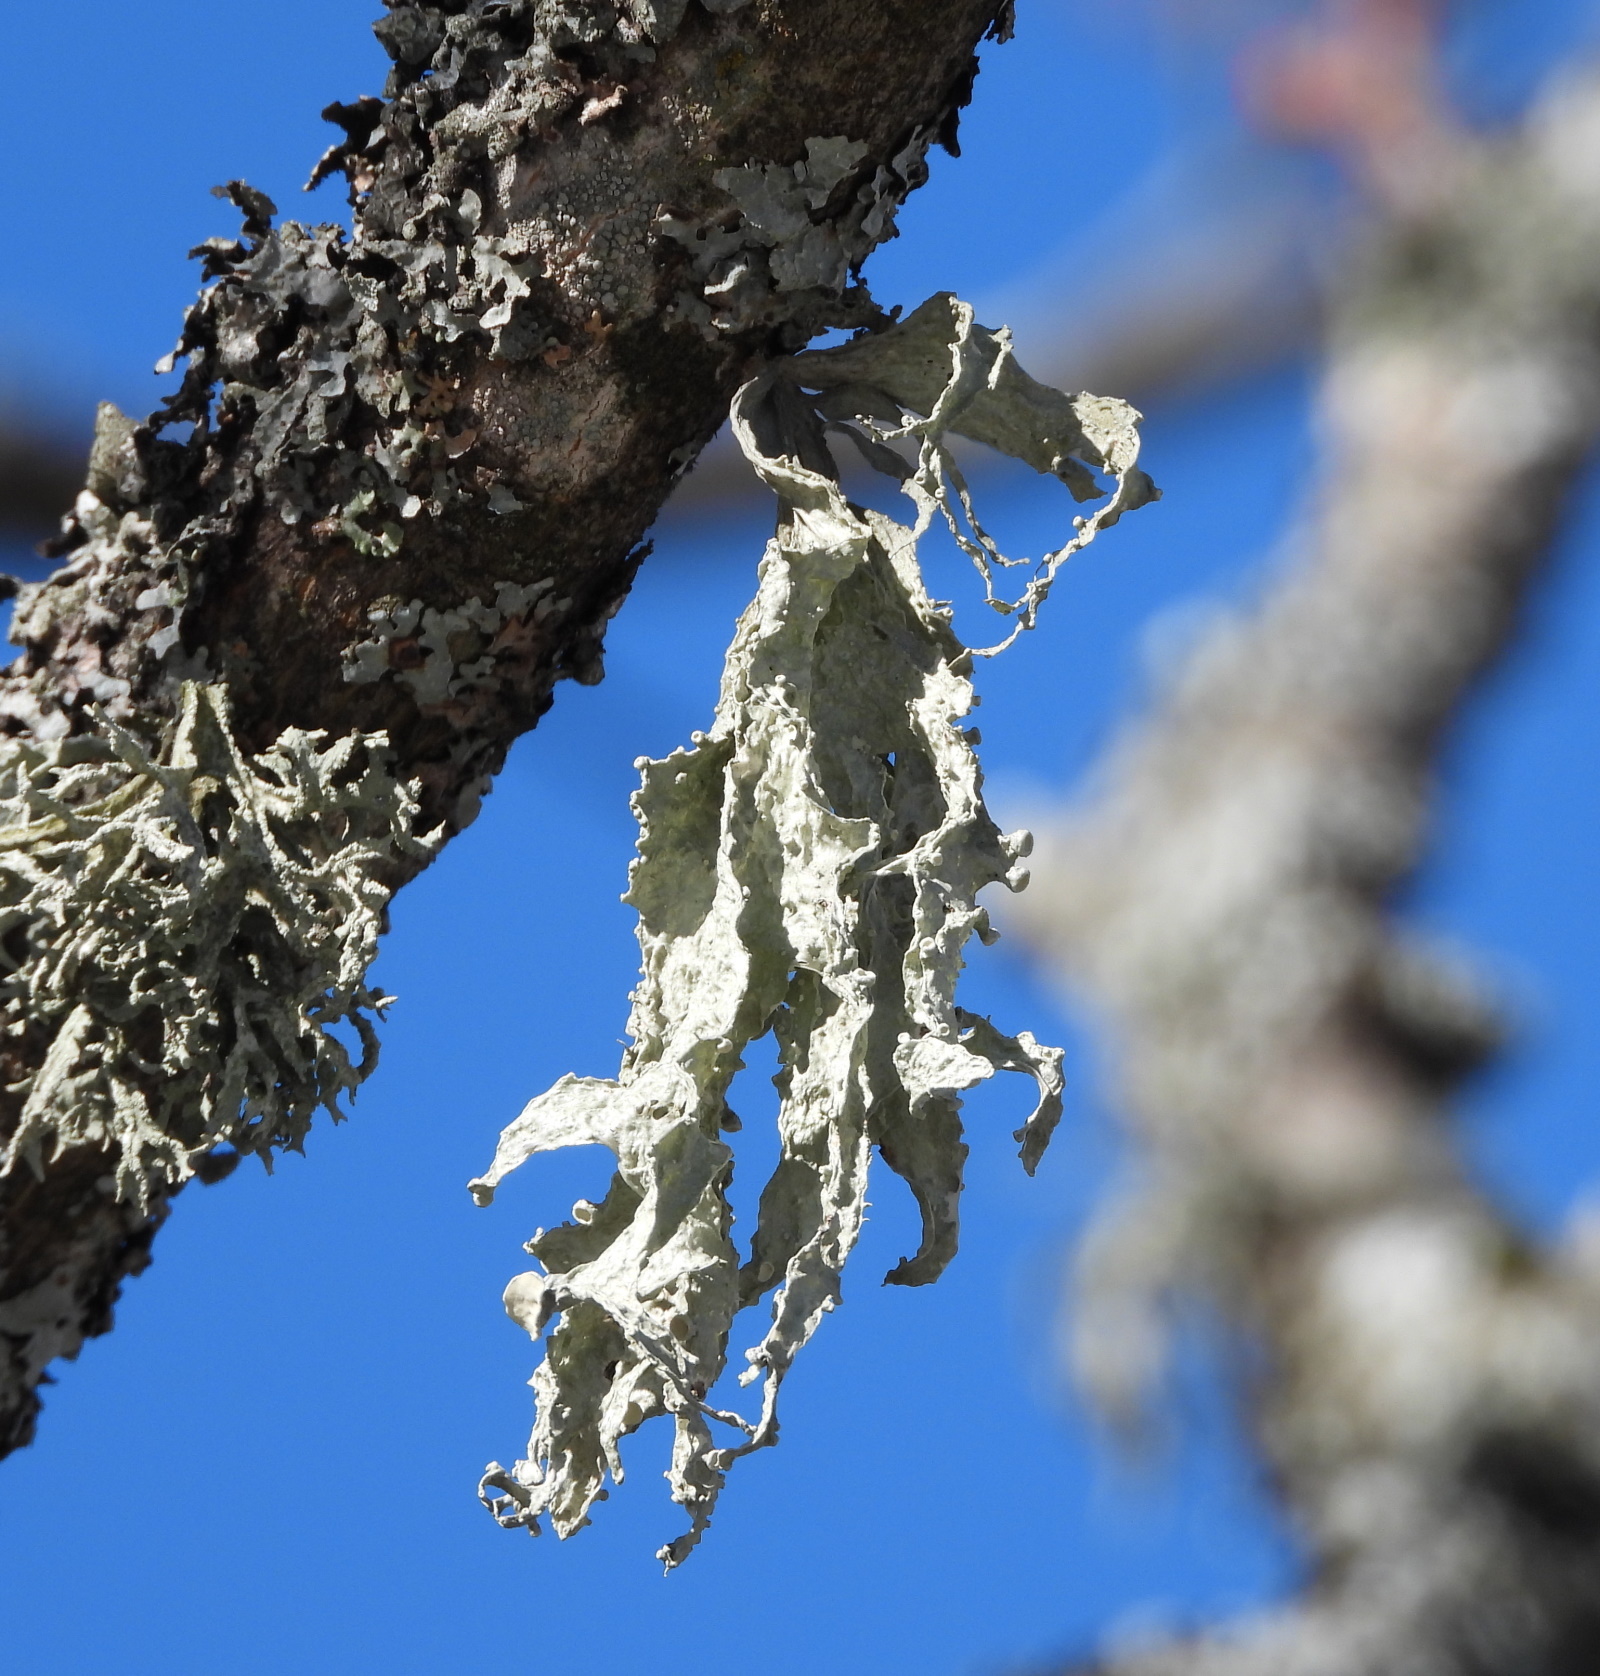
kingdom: Fungi
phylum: Ascomycota
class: Lecanoromycetes
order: Lecanorales
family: Ramalinaceae
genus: Ramalina
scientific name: Ramalina fraxinea
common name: Cartilage lichen
